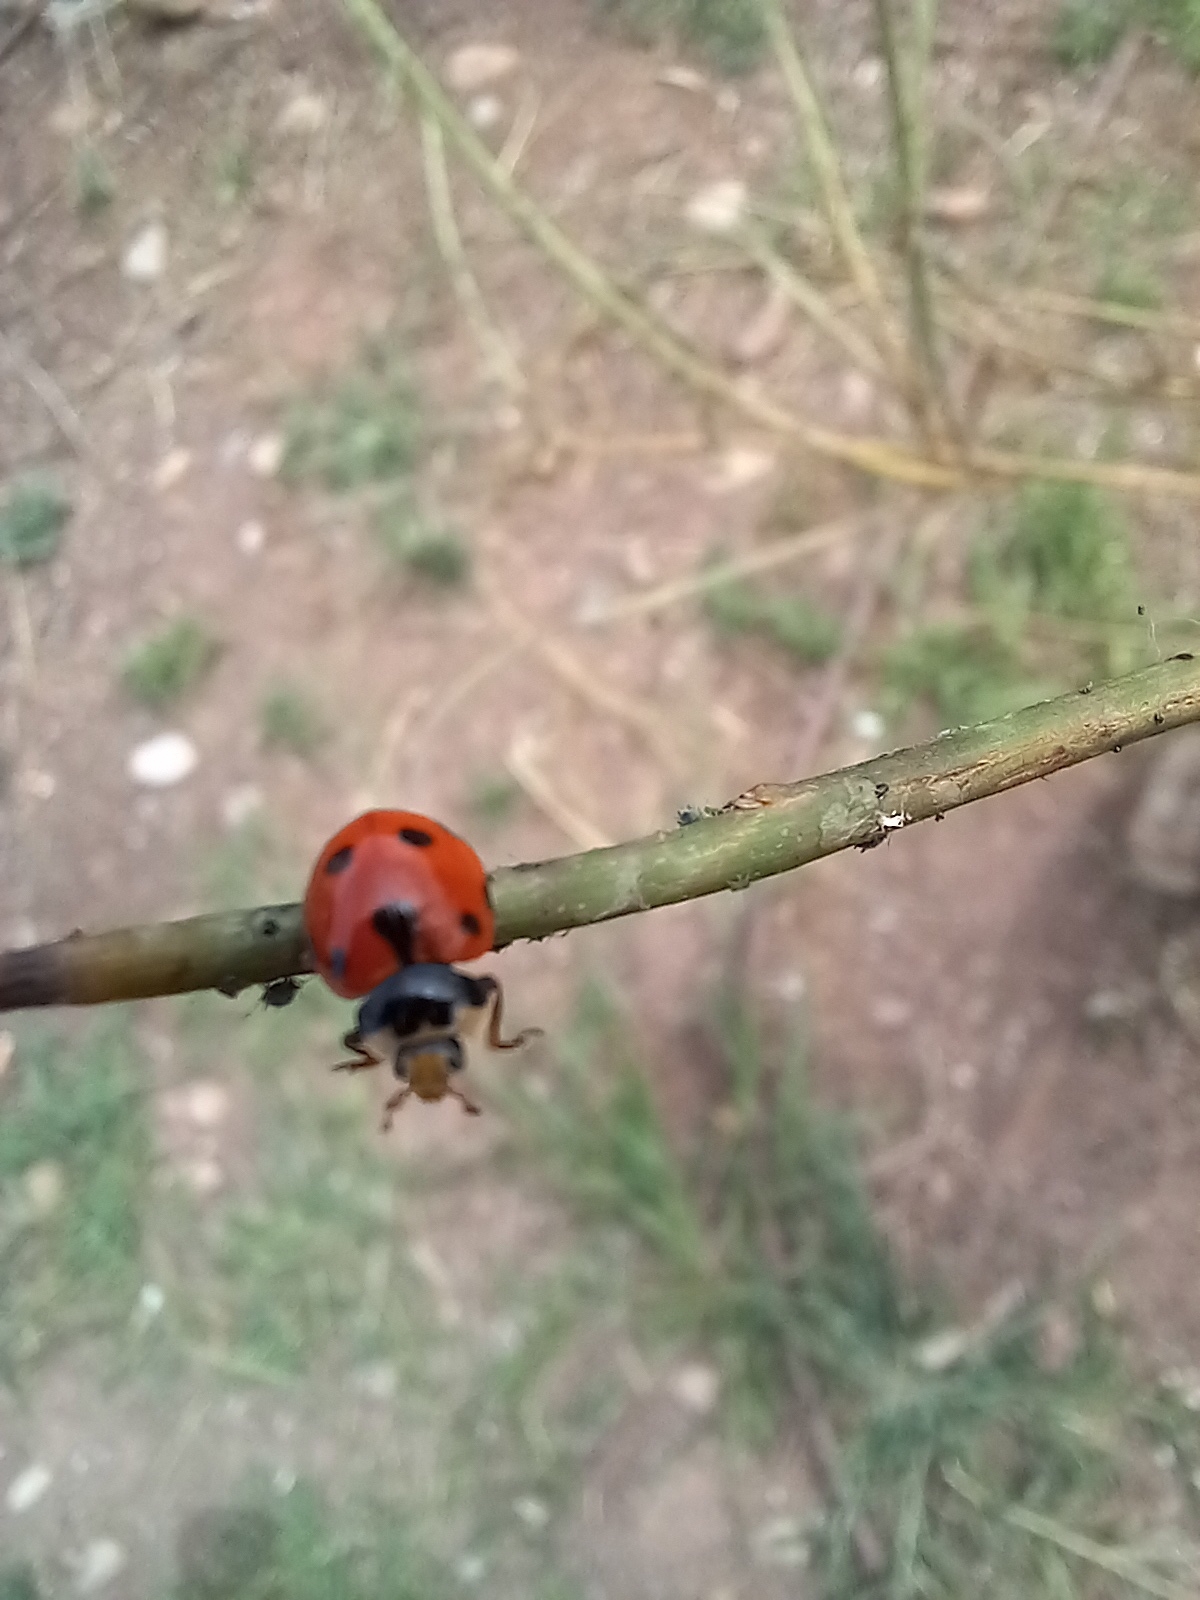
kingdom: Animalia
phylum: Arthropoda
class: Insecta
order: Coleoptera
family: Coccinellidae
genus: Coccinella
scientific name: Coccinella septempunctata
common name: Sevenspotted lady beetle
